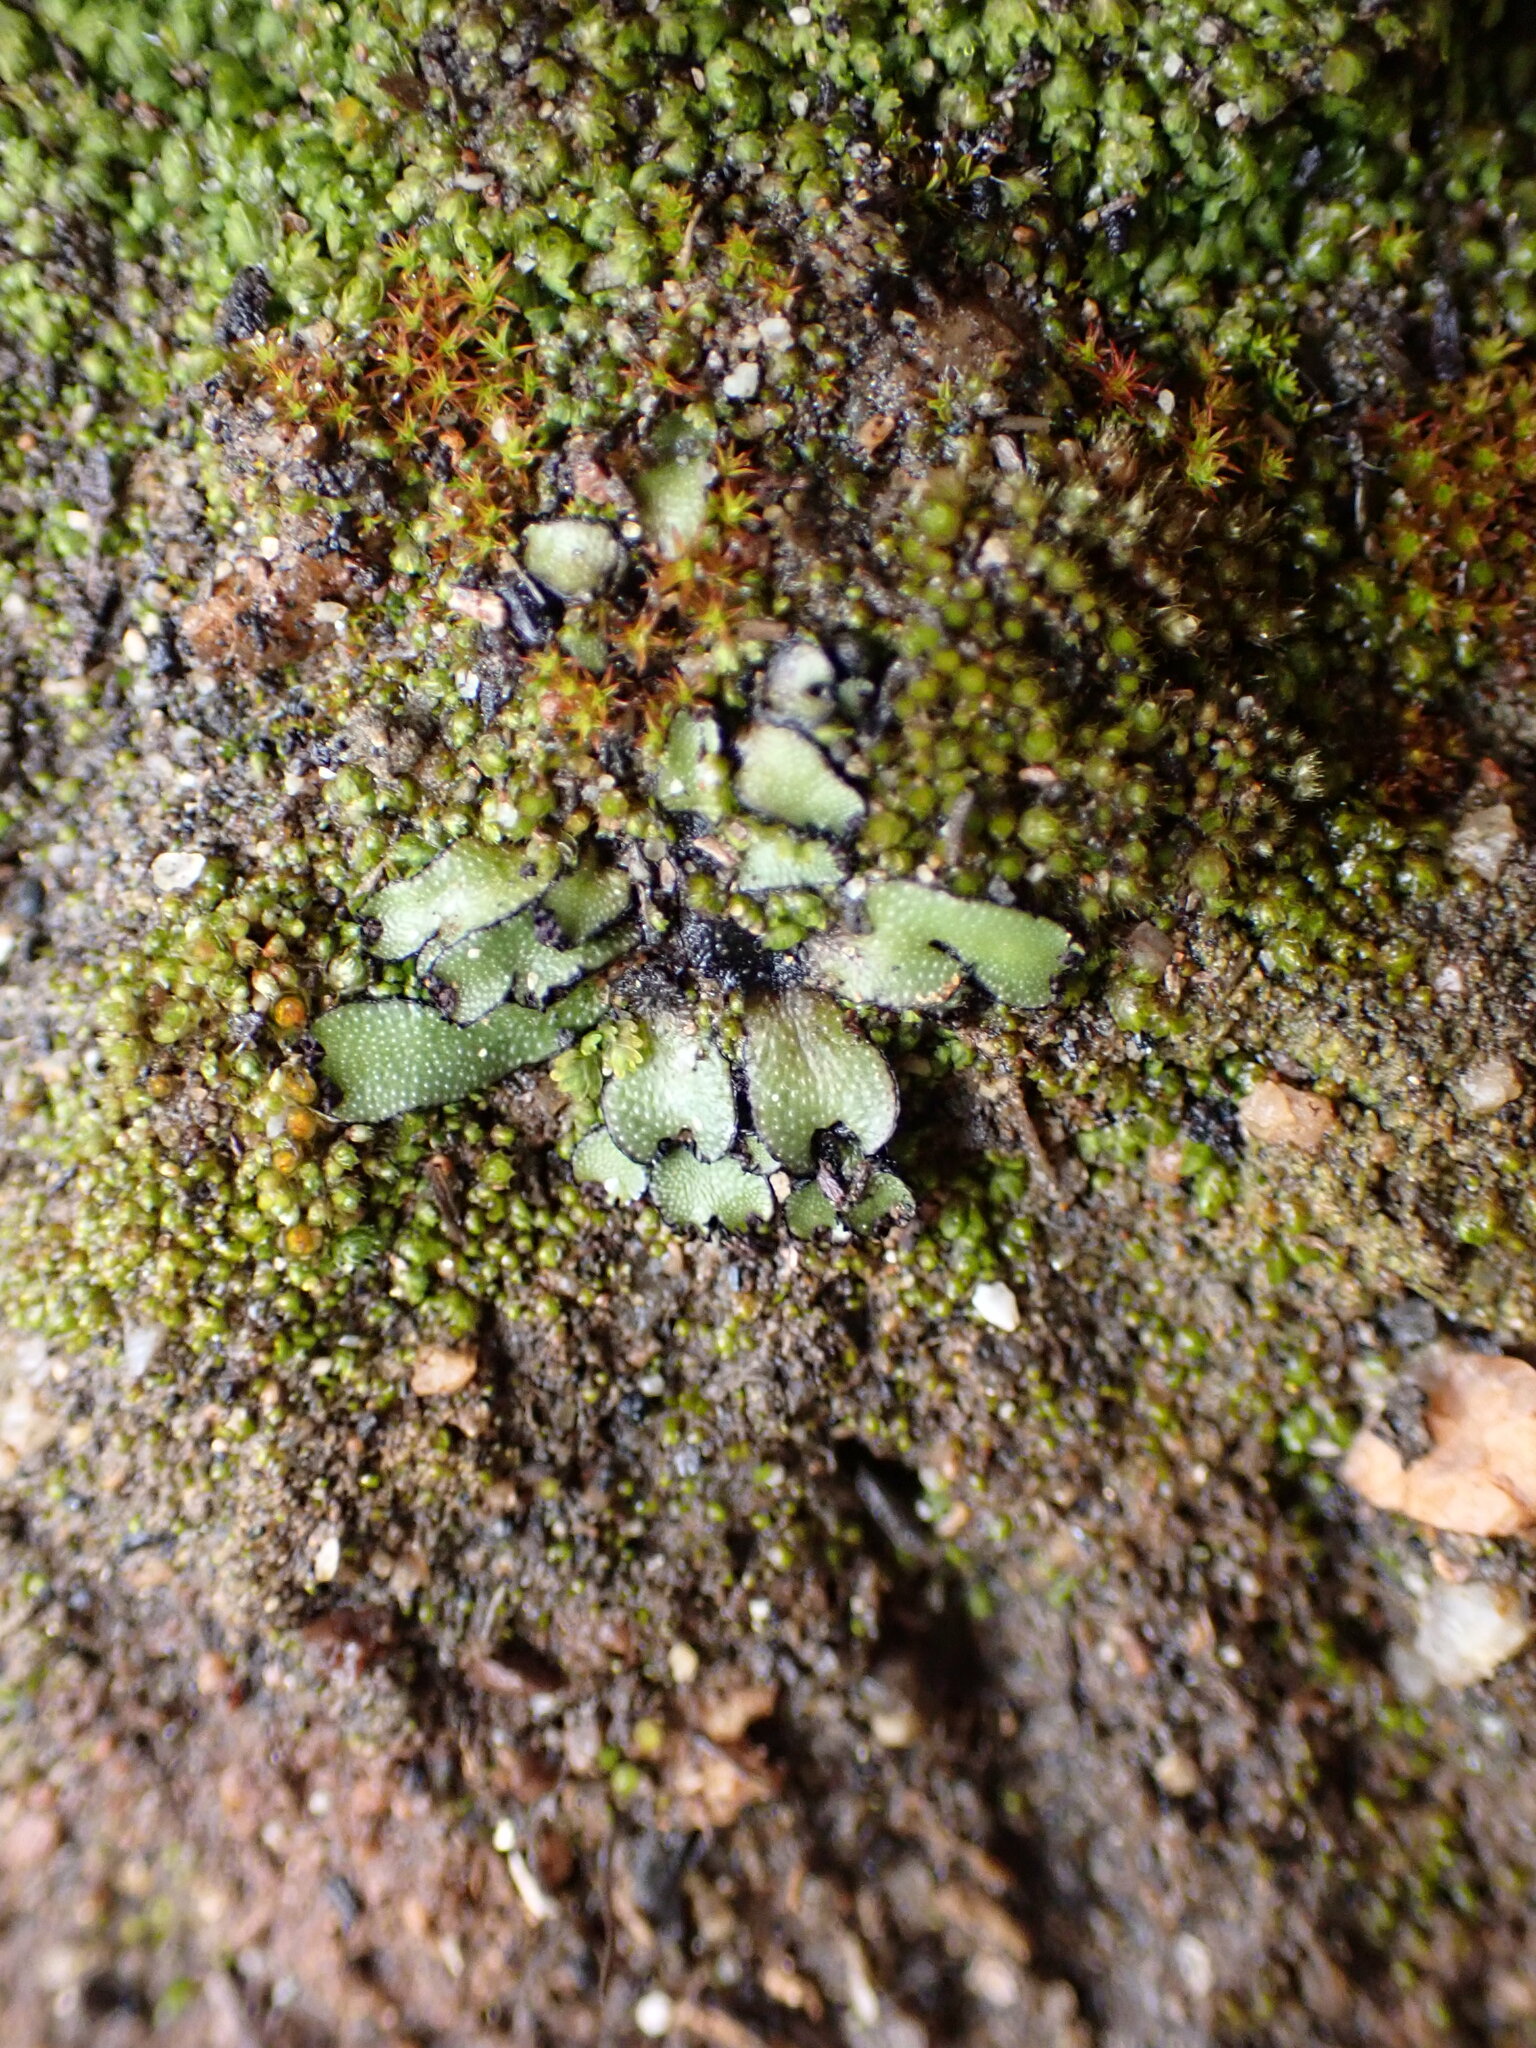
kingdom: Plantae
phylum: Marchantiophyta
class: Marchantiopsida
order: Marchantiales
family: Targioniaceae
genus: Targionia
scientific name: Targionia hypophylla
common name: Orobus-seed liverwort
